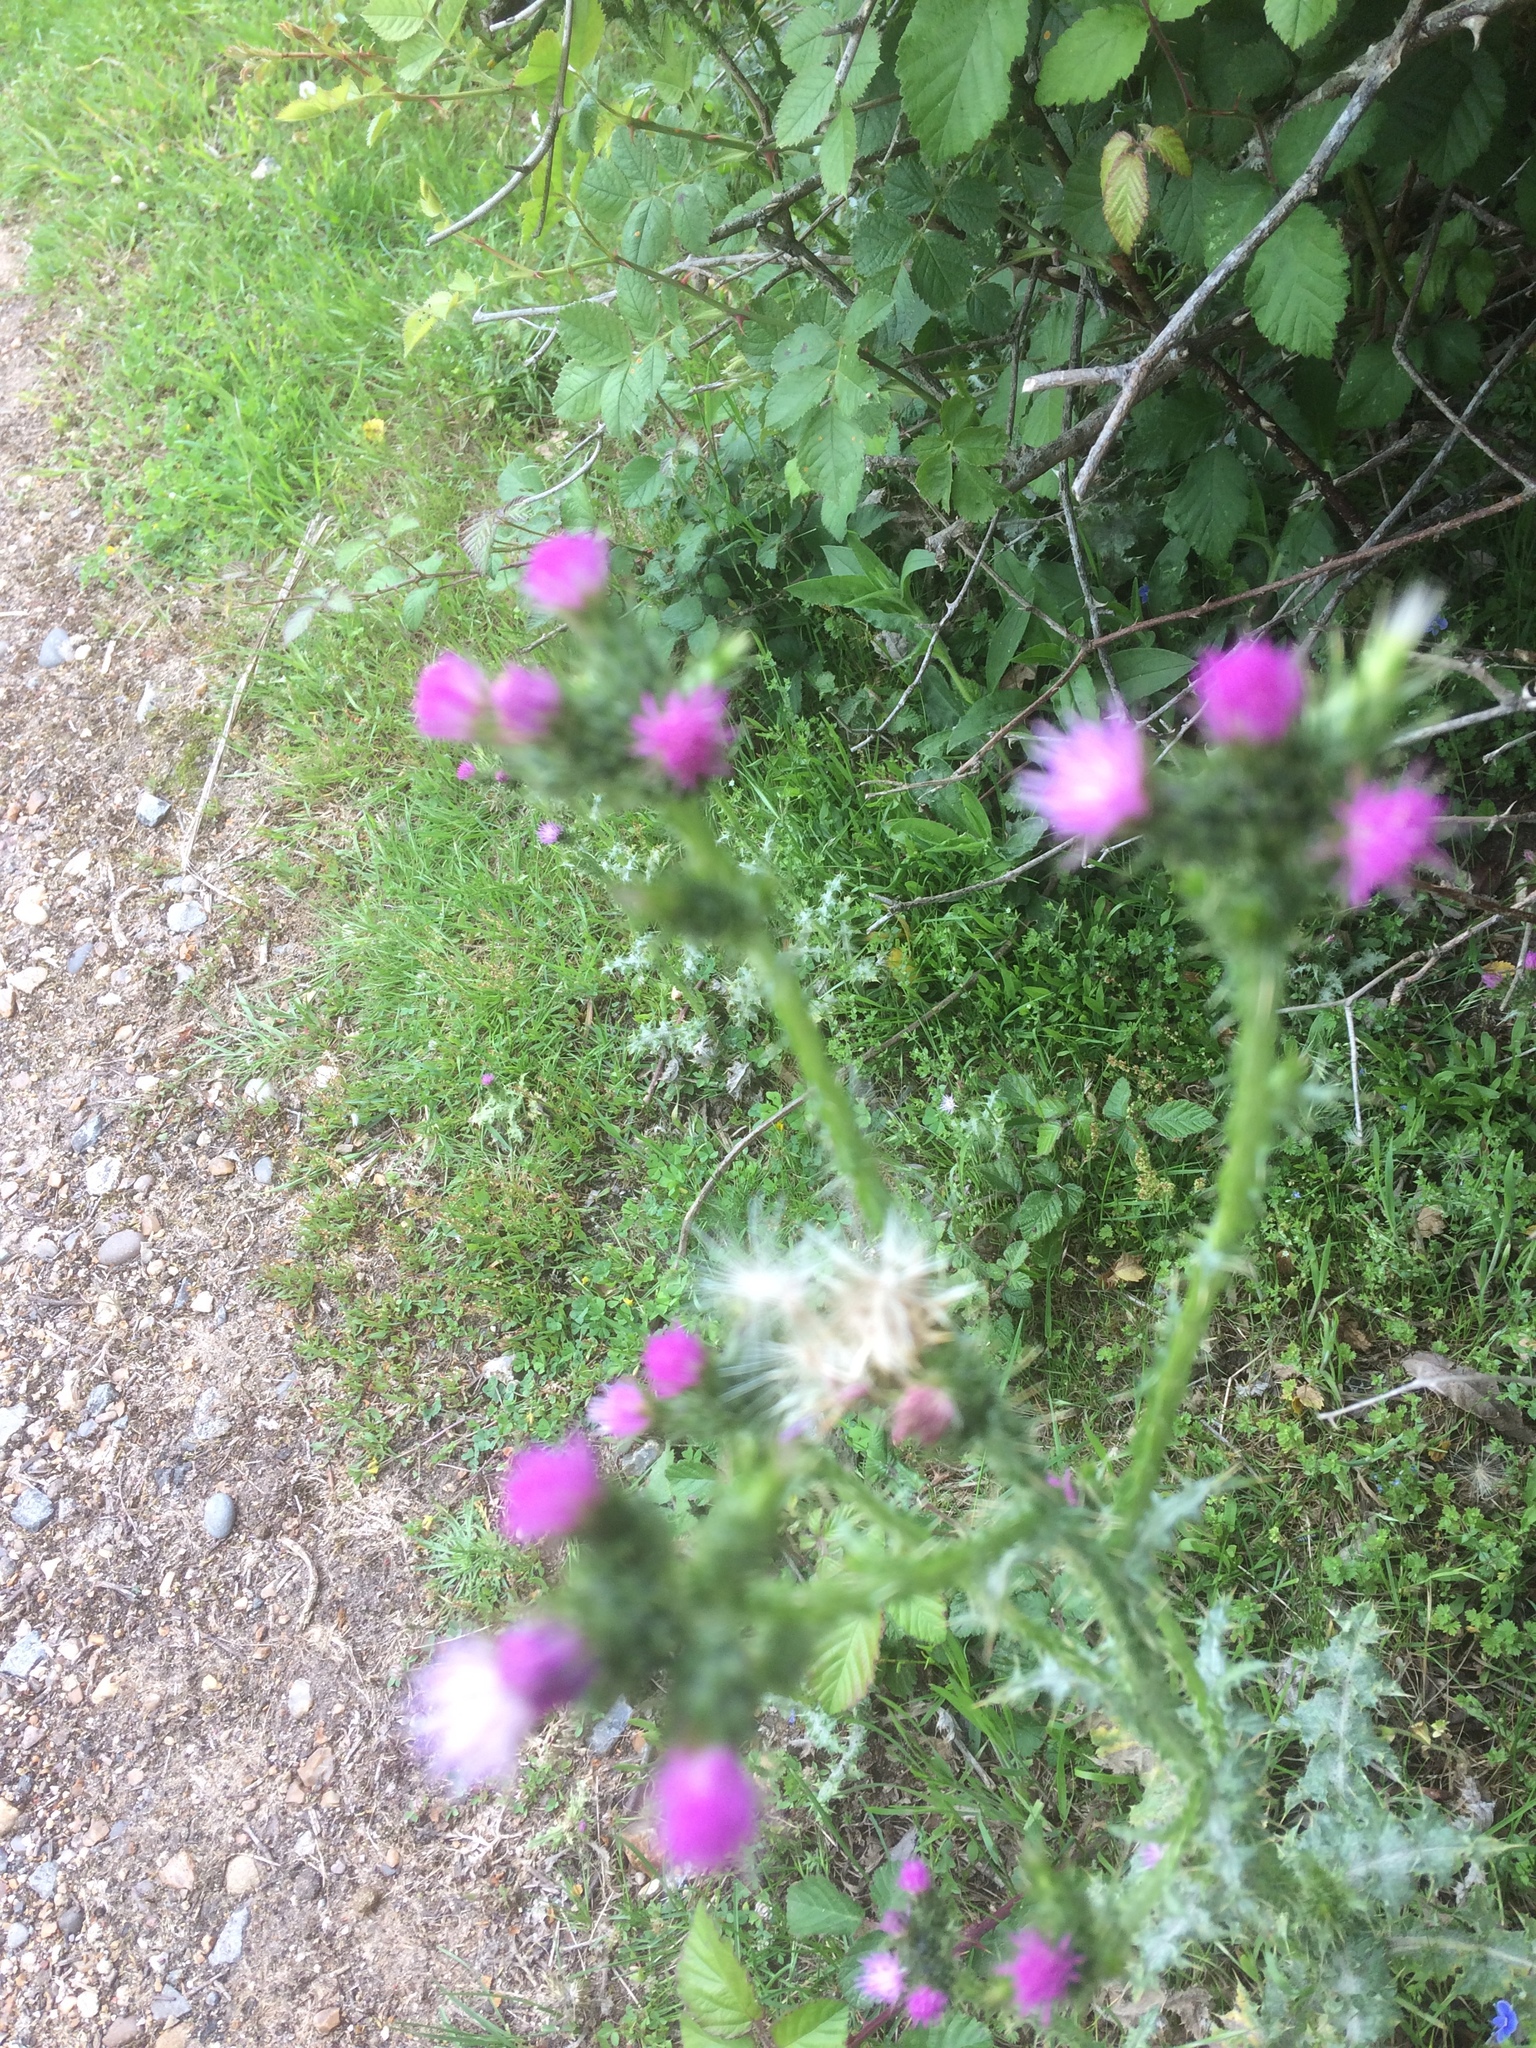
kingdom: Plantae
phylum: Tracheophyta
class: Magnoliopsida
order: Asterales
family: Asteraceae
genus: Carduus
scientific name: Carduus tenuiflorus
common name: Slender thistle
